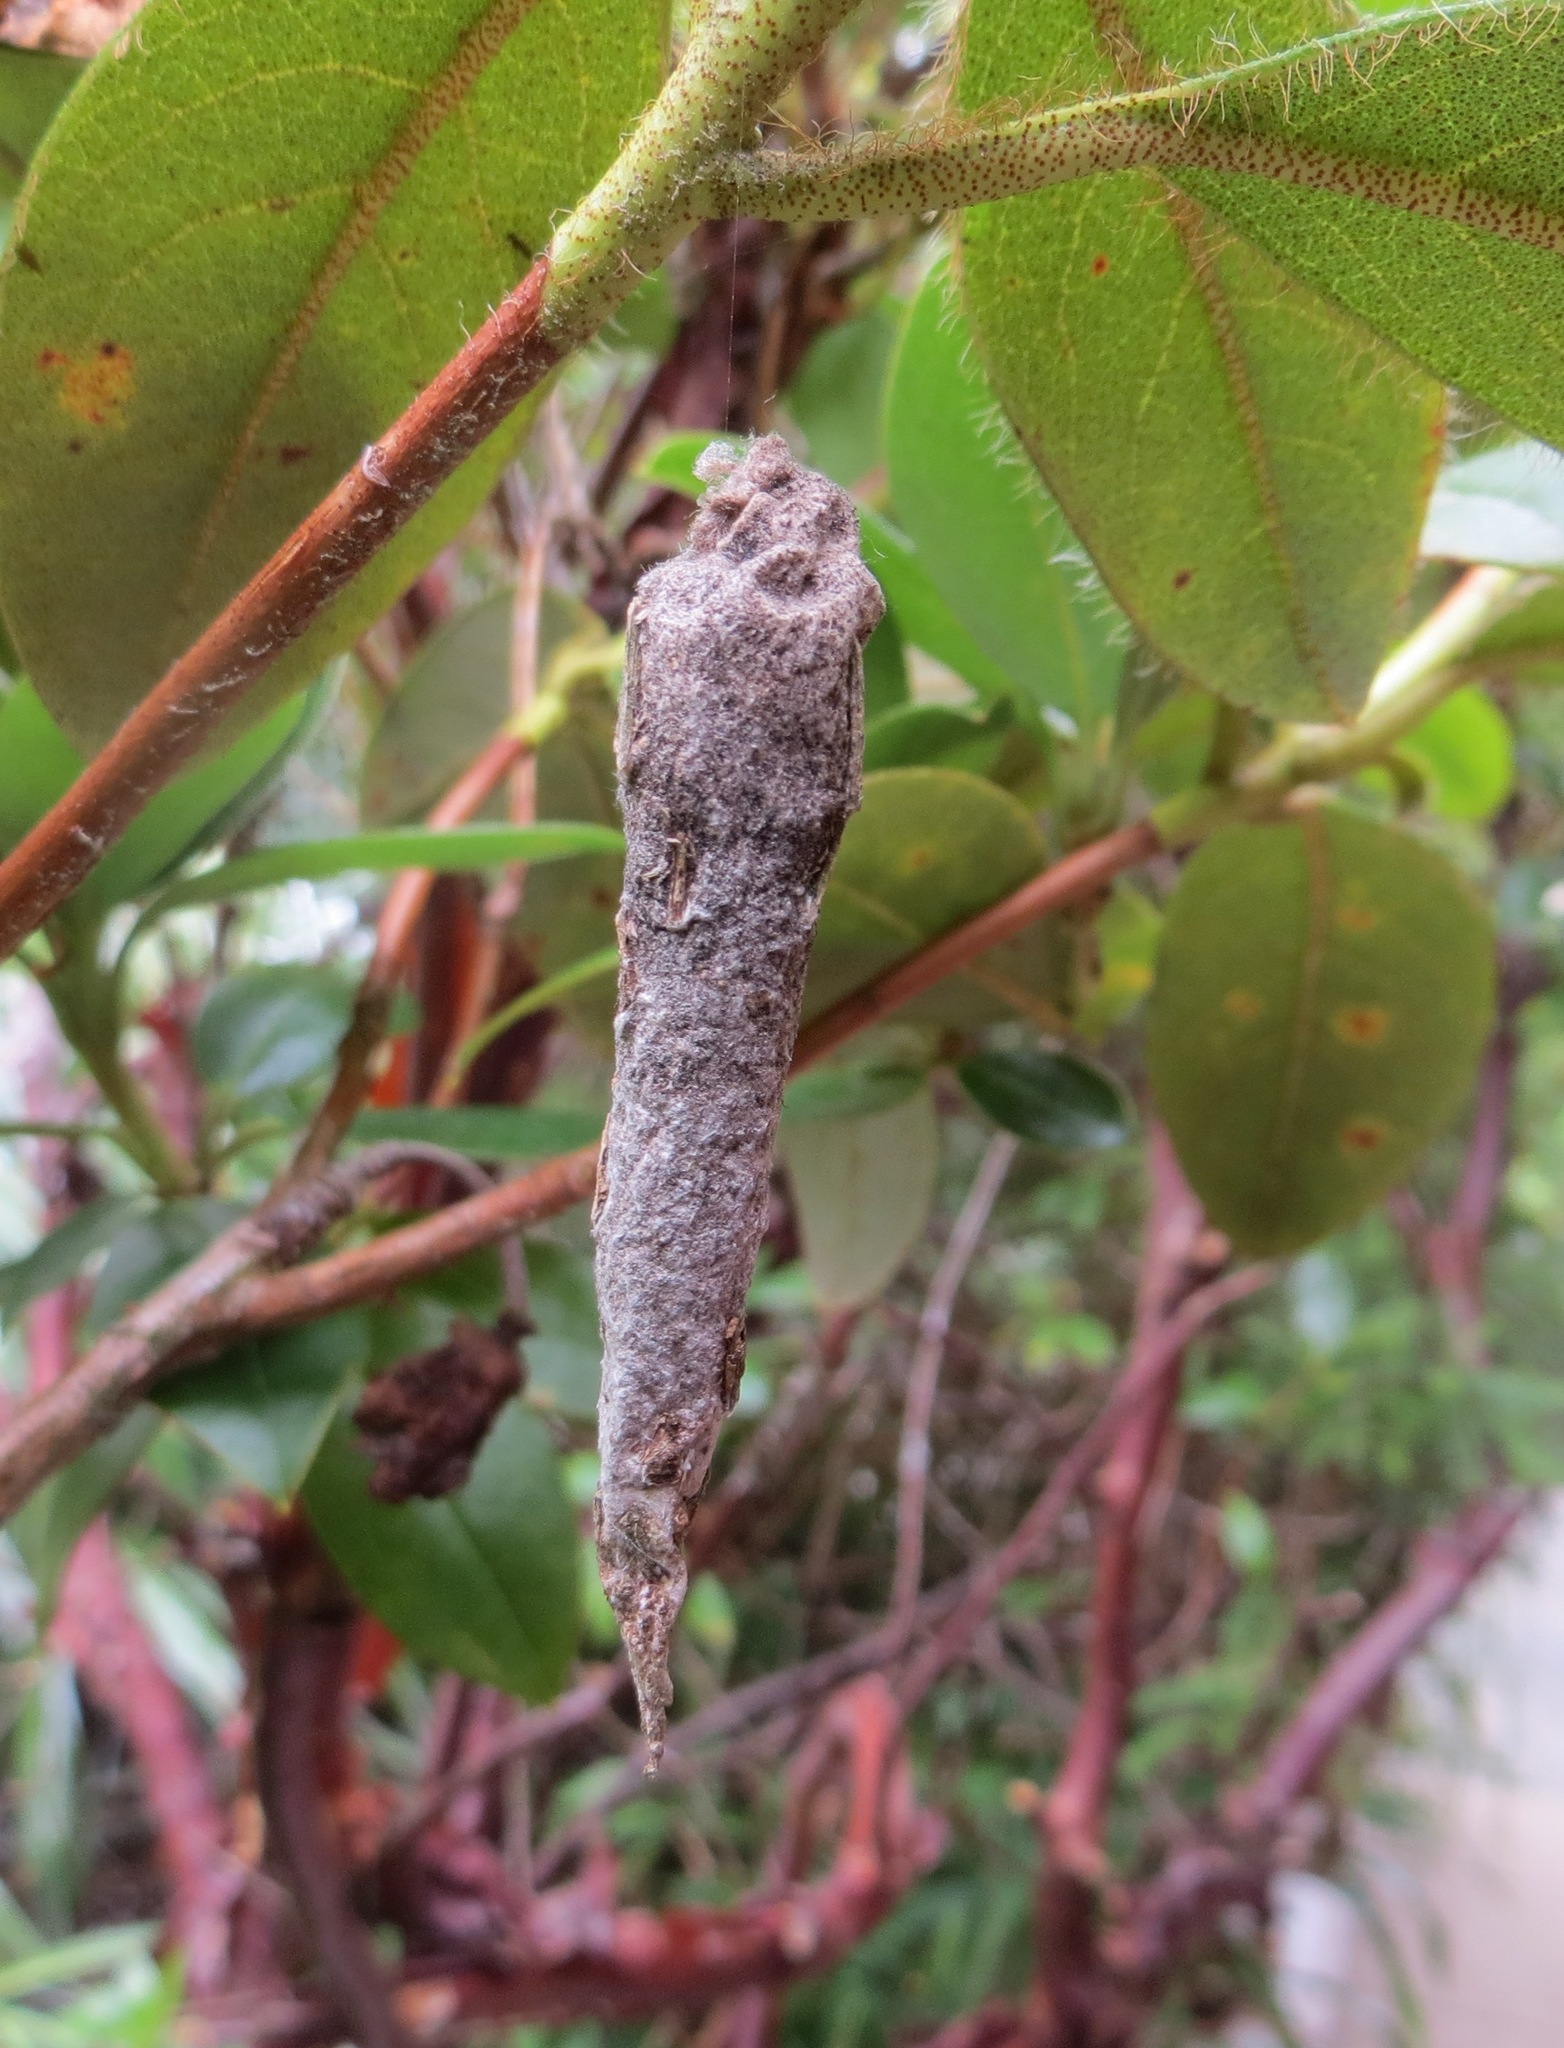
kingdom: Animalia
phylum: Arthropoda
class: Insecta
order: Lepidoptera
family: Psychidae
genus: Liothula
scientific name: Liothula omnivora
